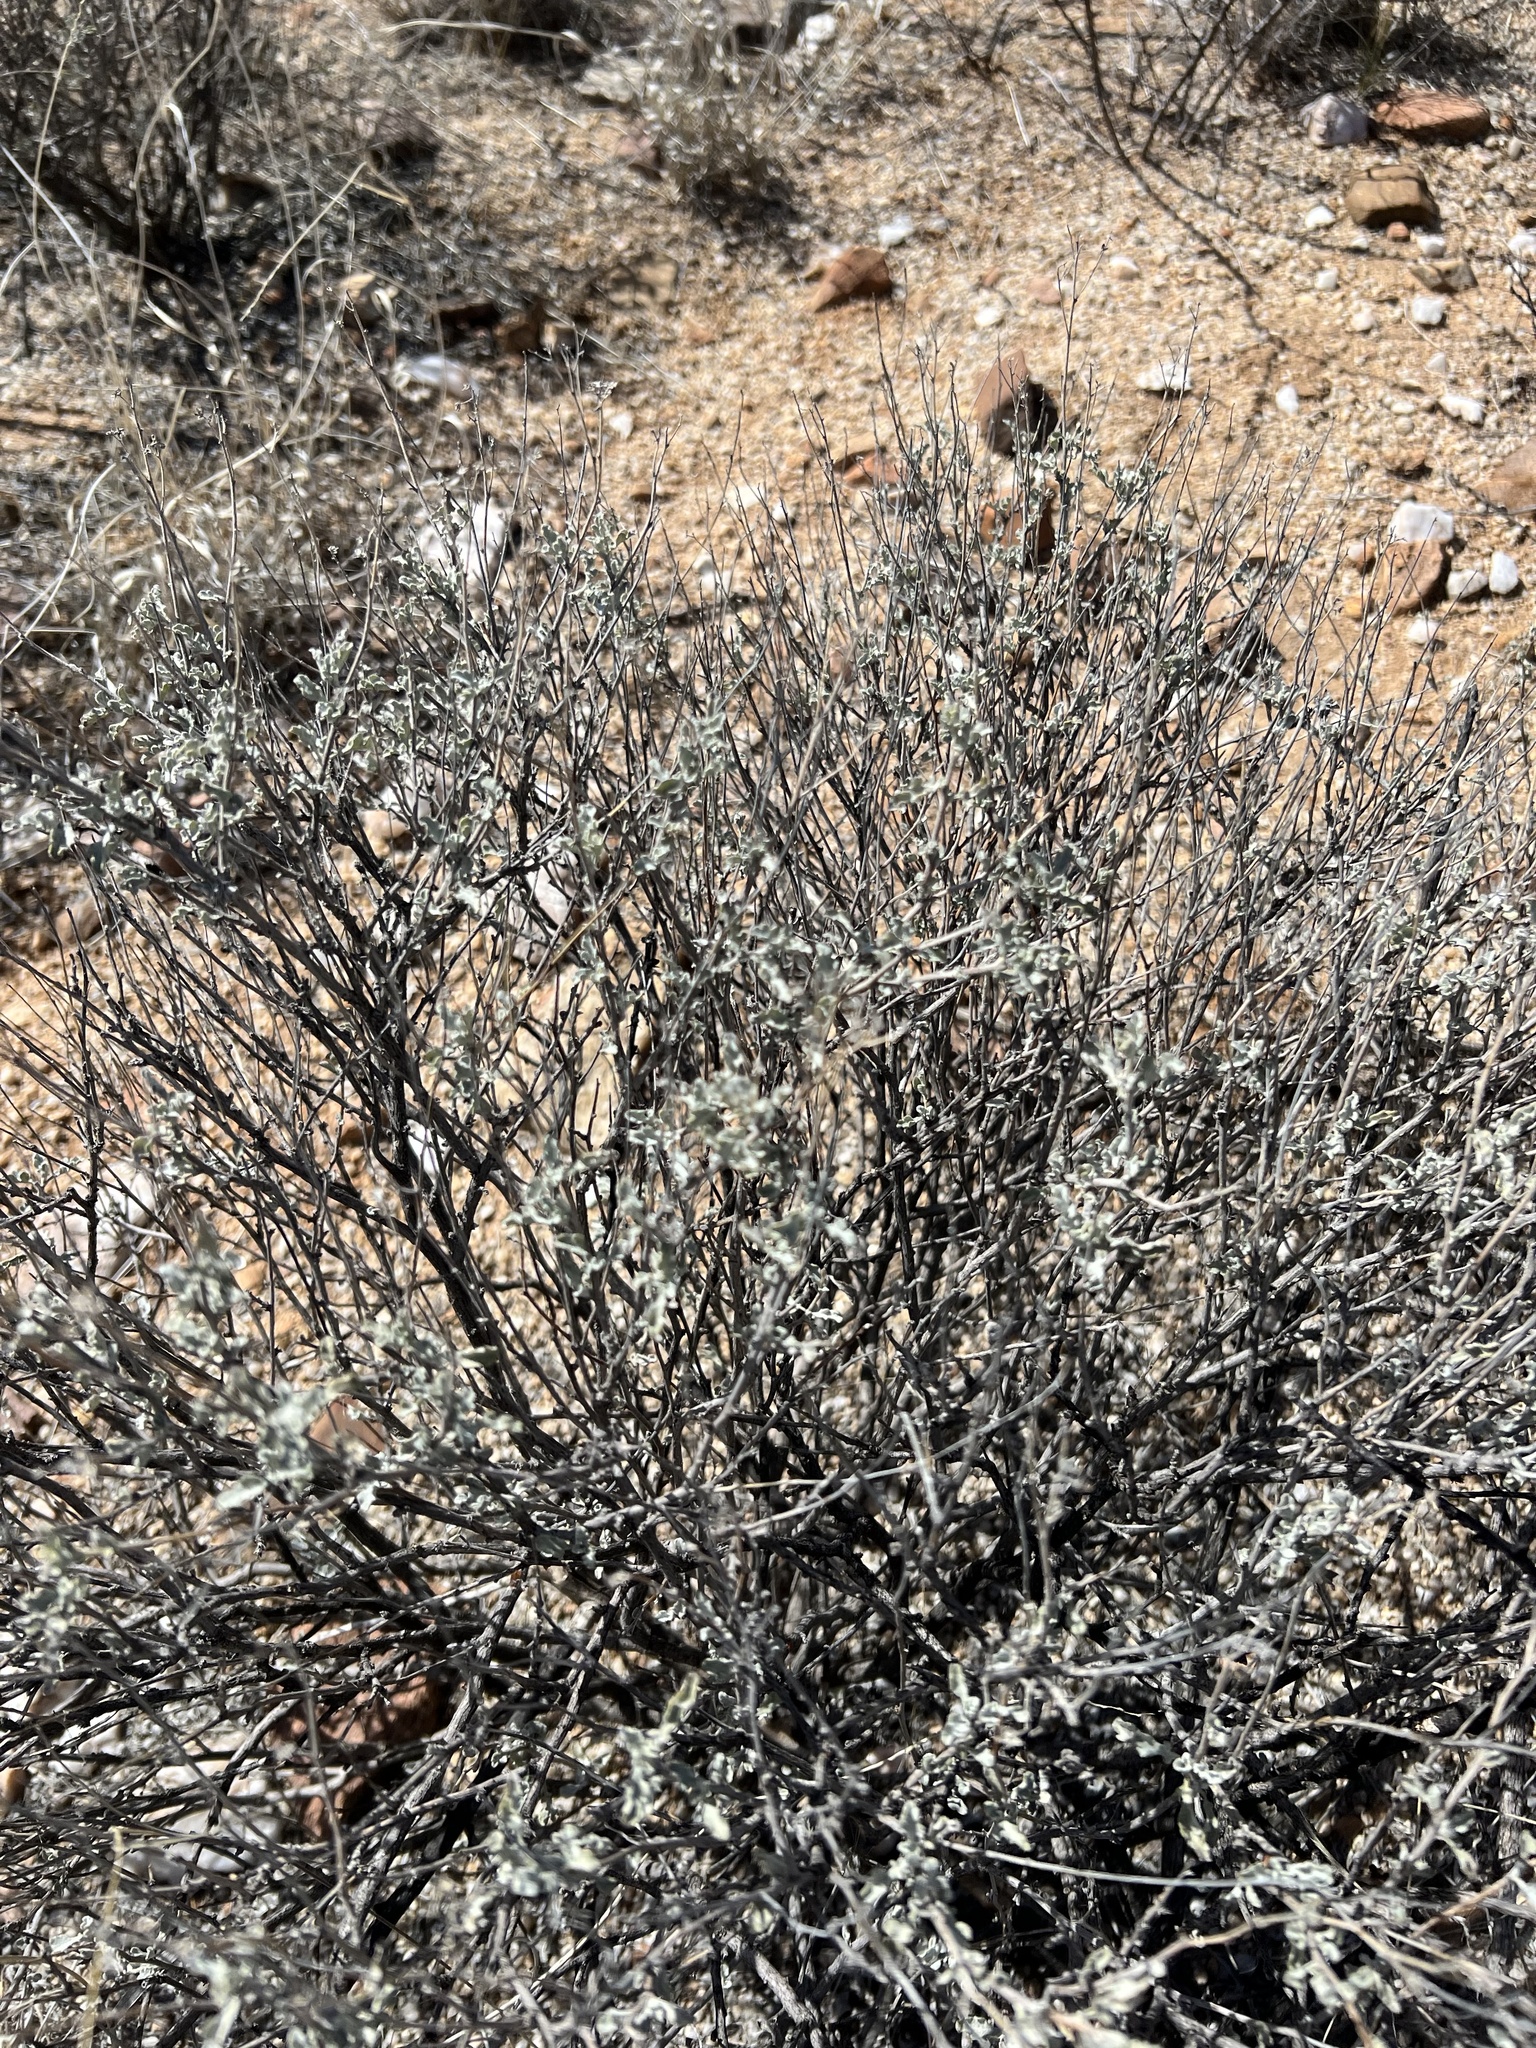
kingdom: Plantae
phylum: Tracheophyta
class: Magnoliopsida
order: Asterales
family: Asteraceae
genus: Parthenium
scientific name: Parthenium incanum
